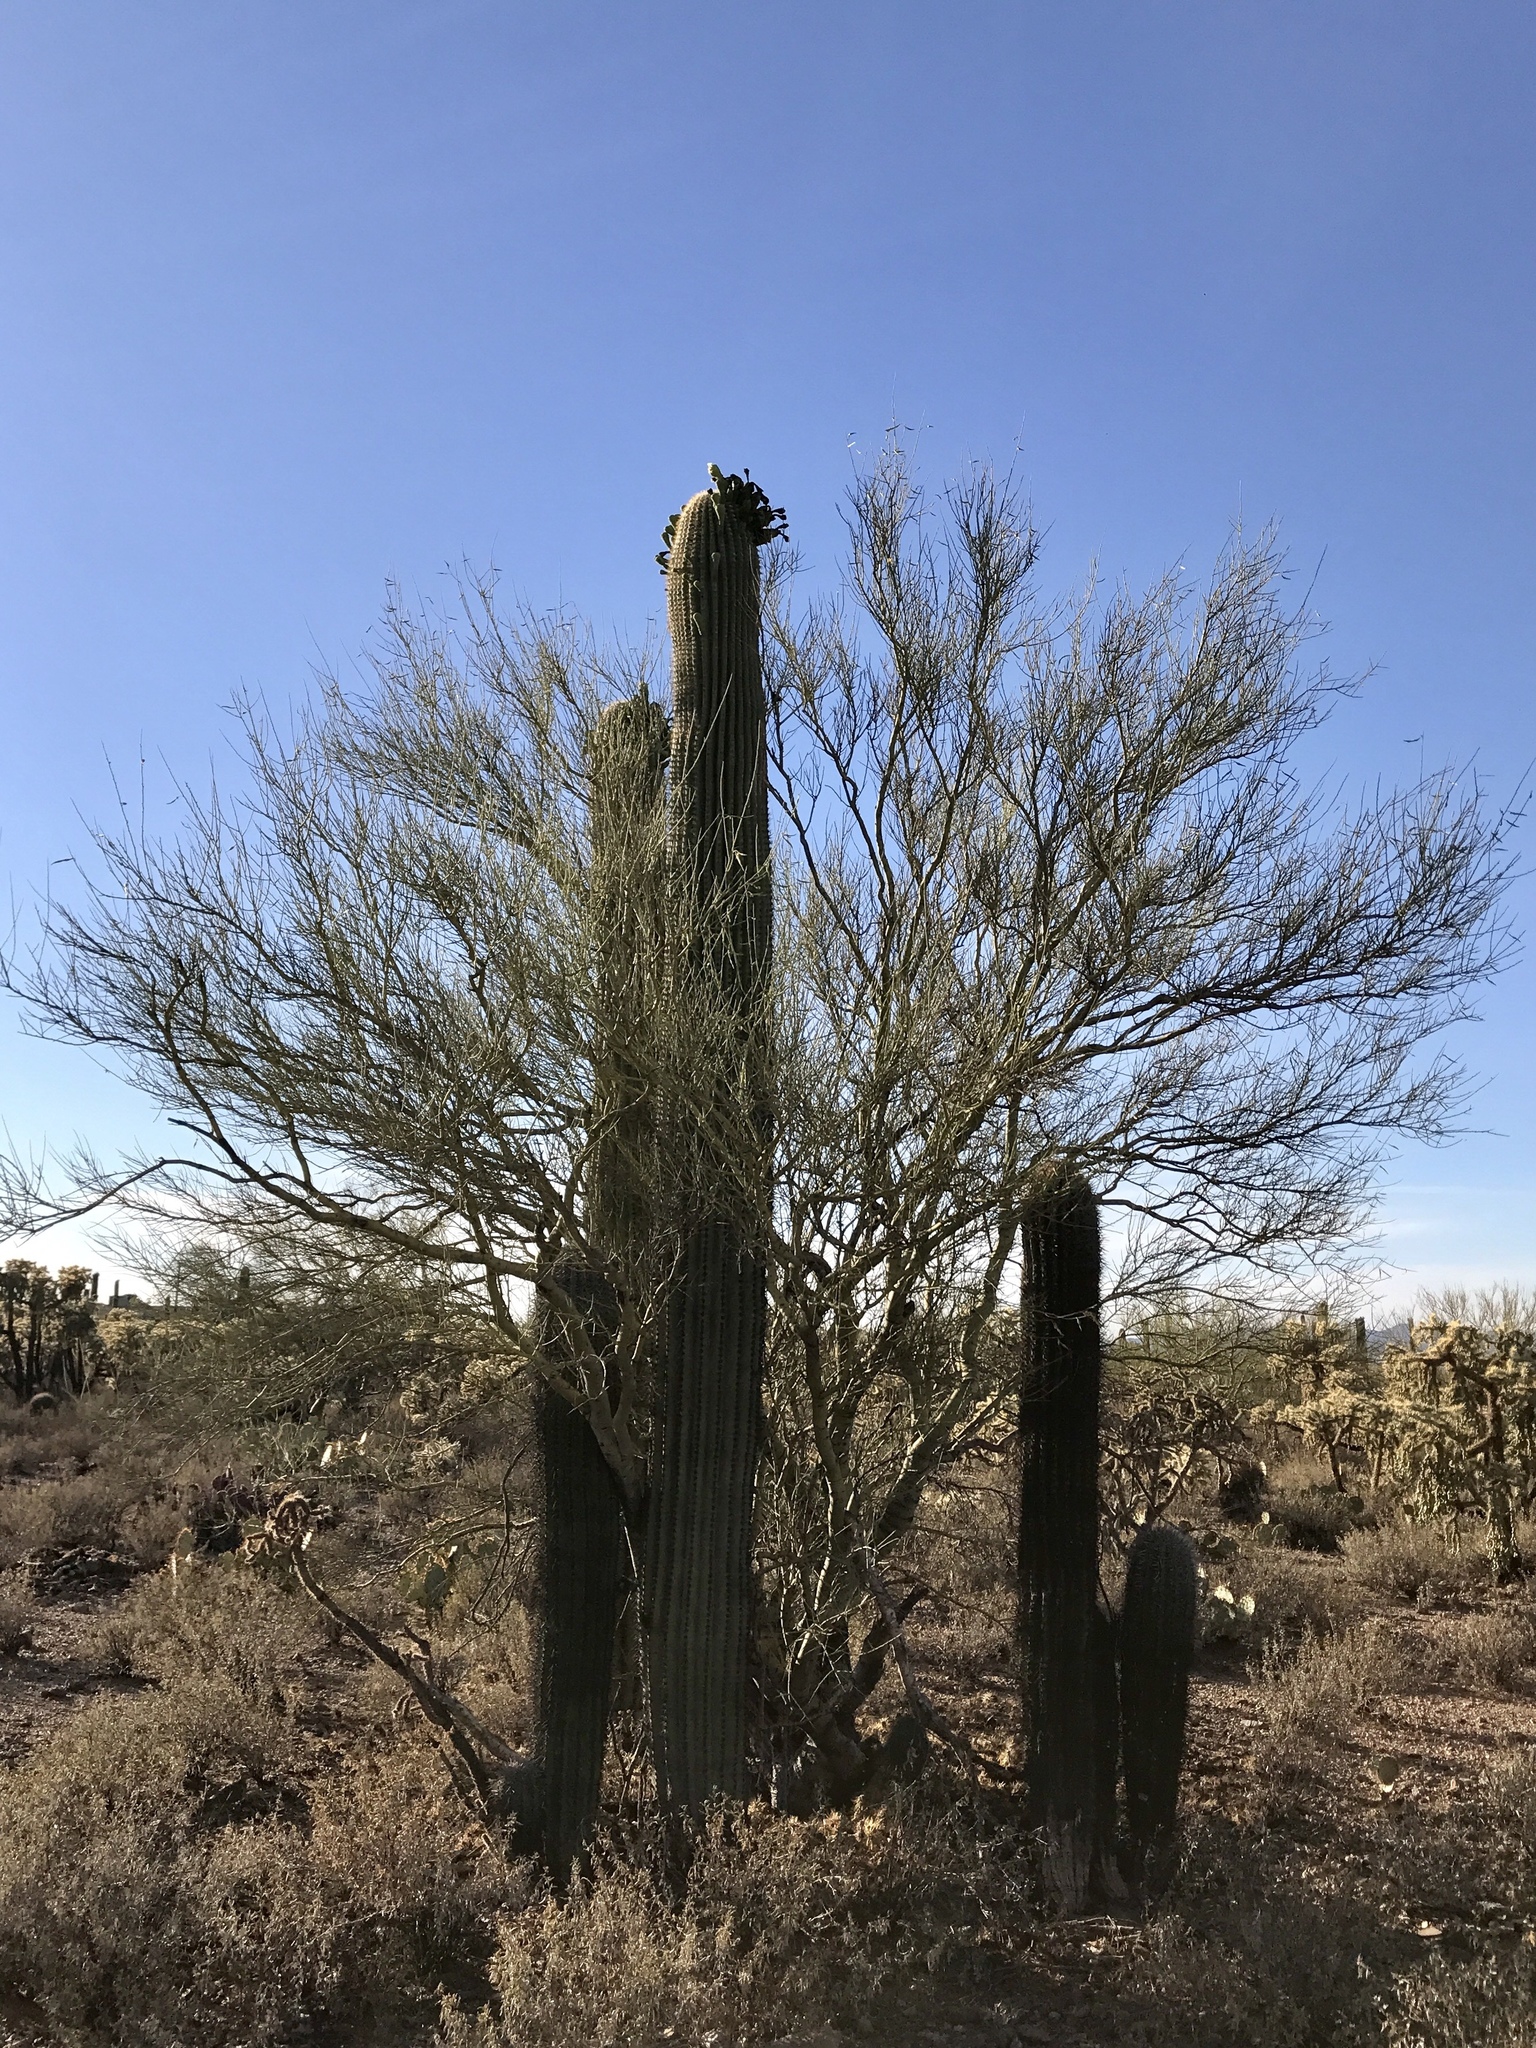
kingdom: Plantae
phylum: Tracheophyta
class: Magnoliopsida
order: Caryophyllales
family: Cactaceae
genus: Carnegiea
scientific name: Carnegiea gigantea
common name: Saguaro
